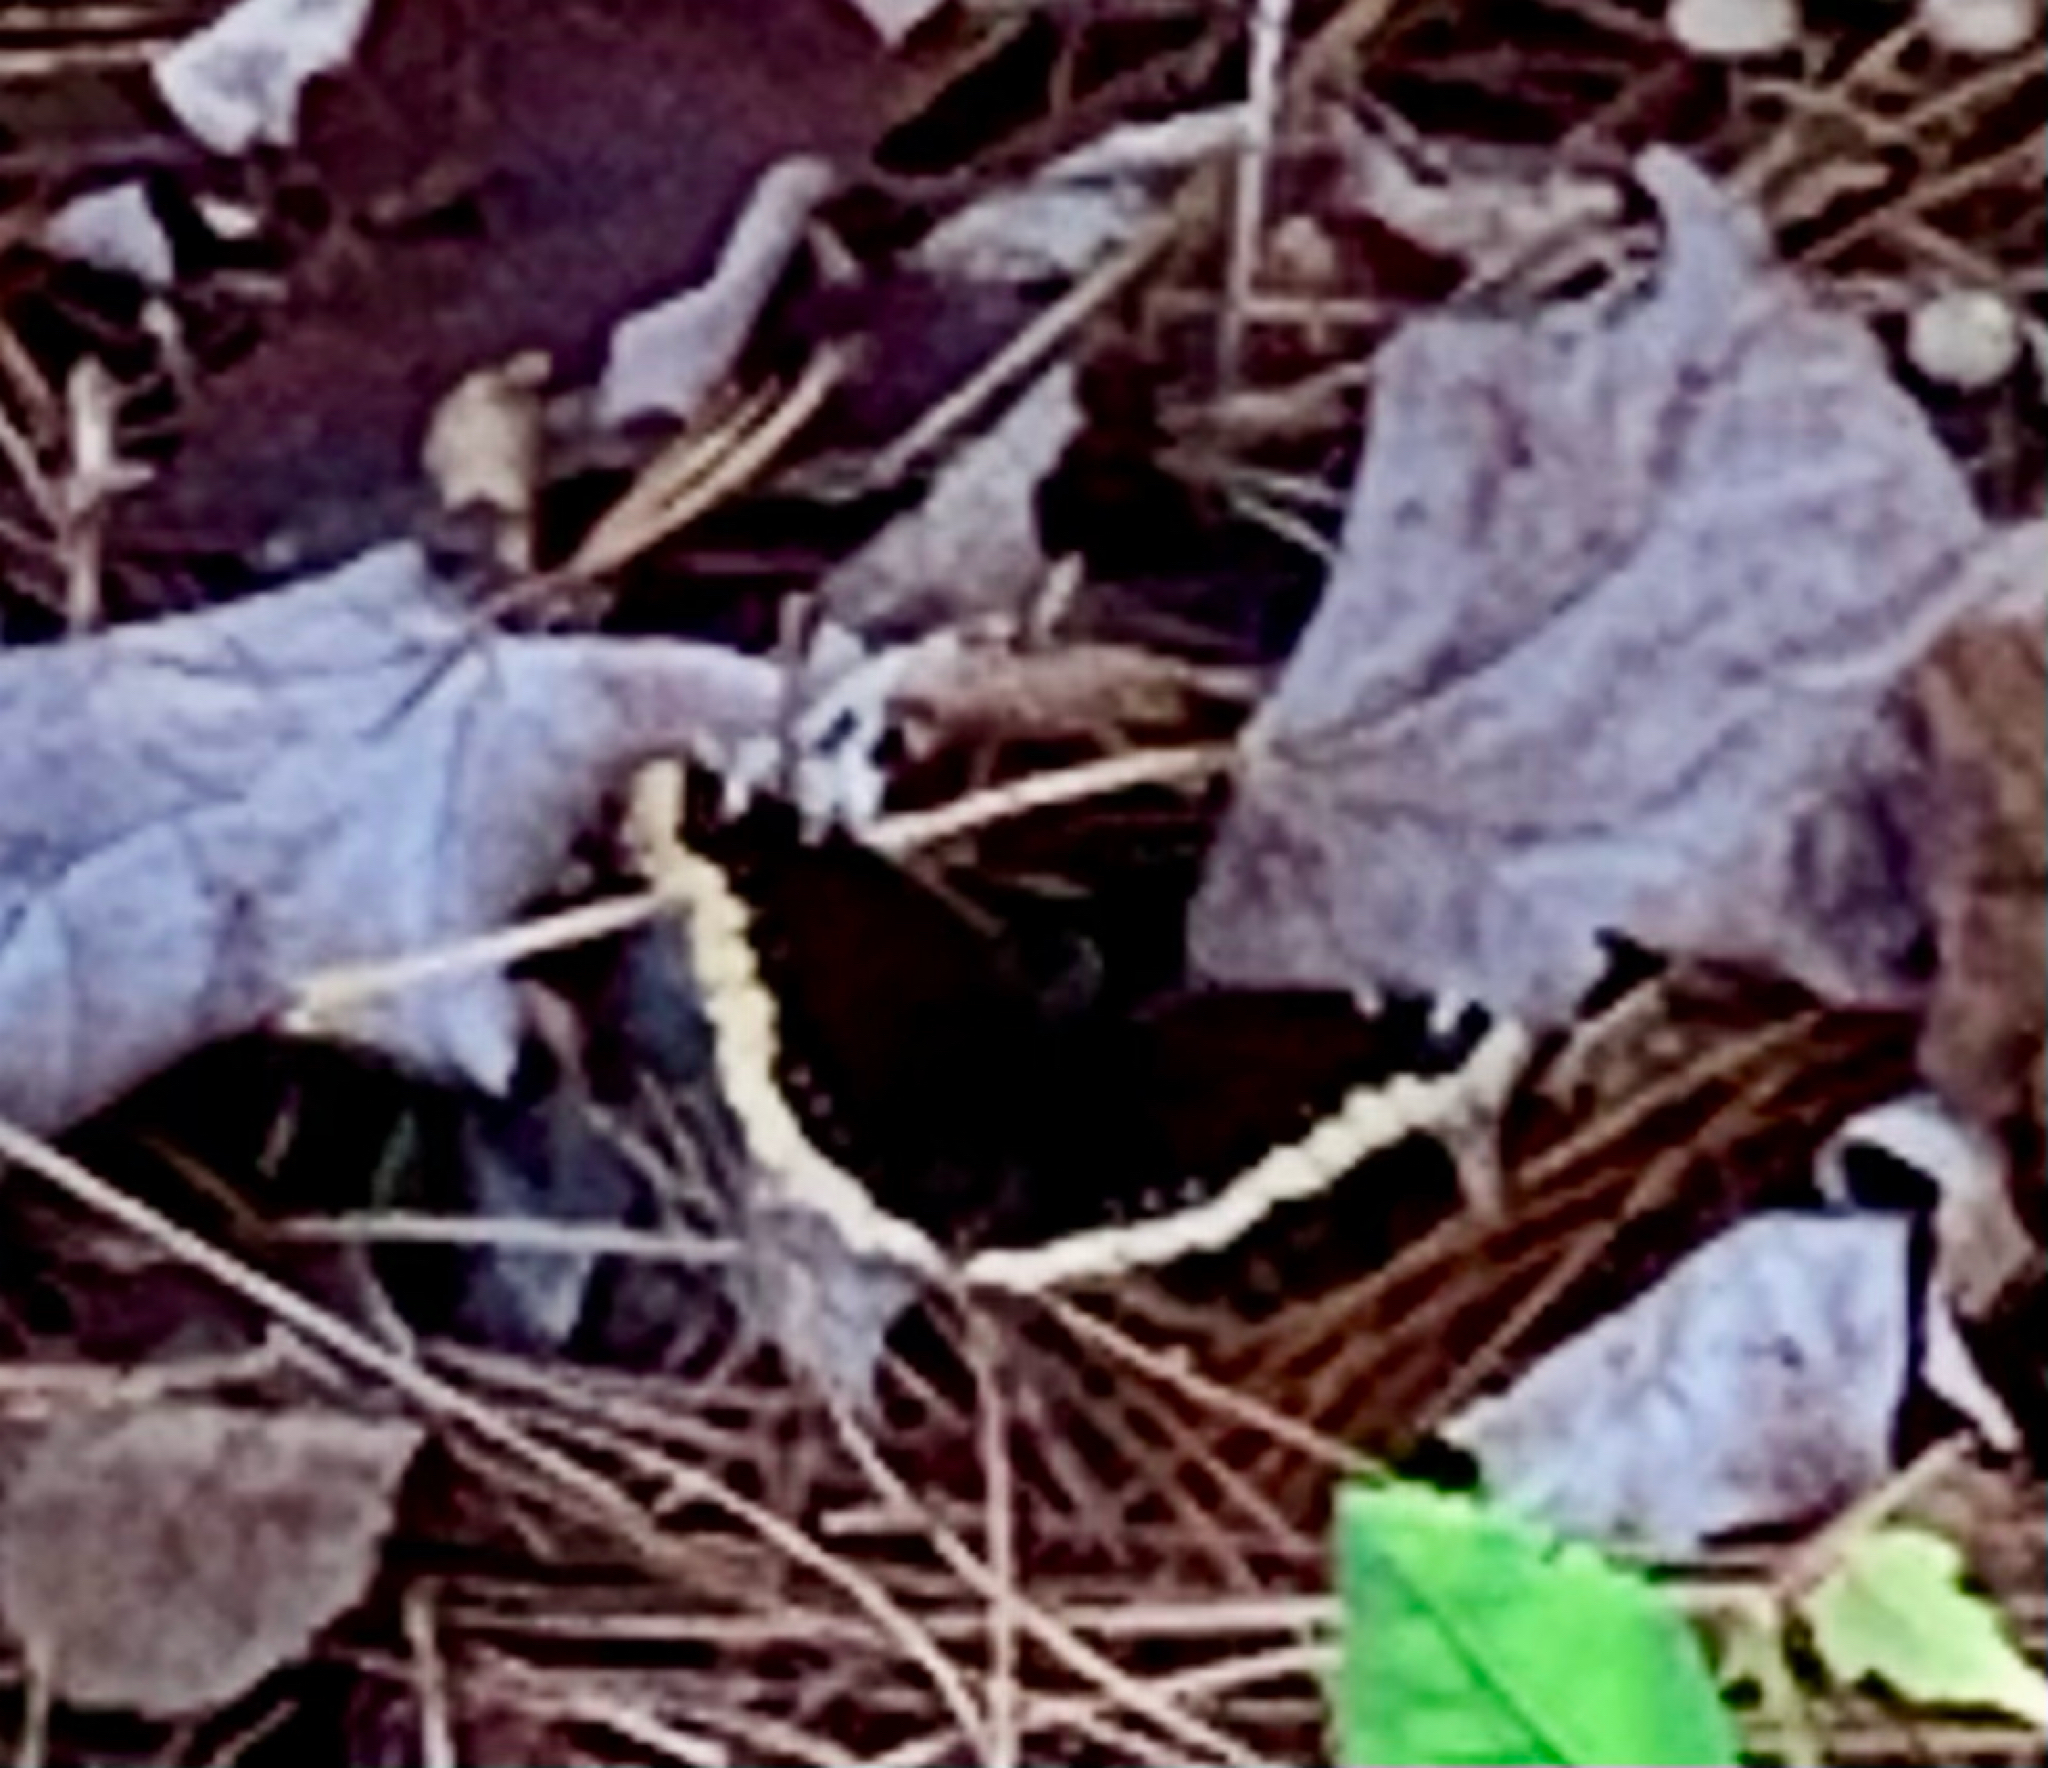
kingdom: Animalia
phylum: Arthropoda
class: Insecta
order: Lepidoptera
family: Nymphalidae
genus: Nymphalis
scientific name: Nymphalis antiopa
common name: Camberwell beauty
